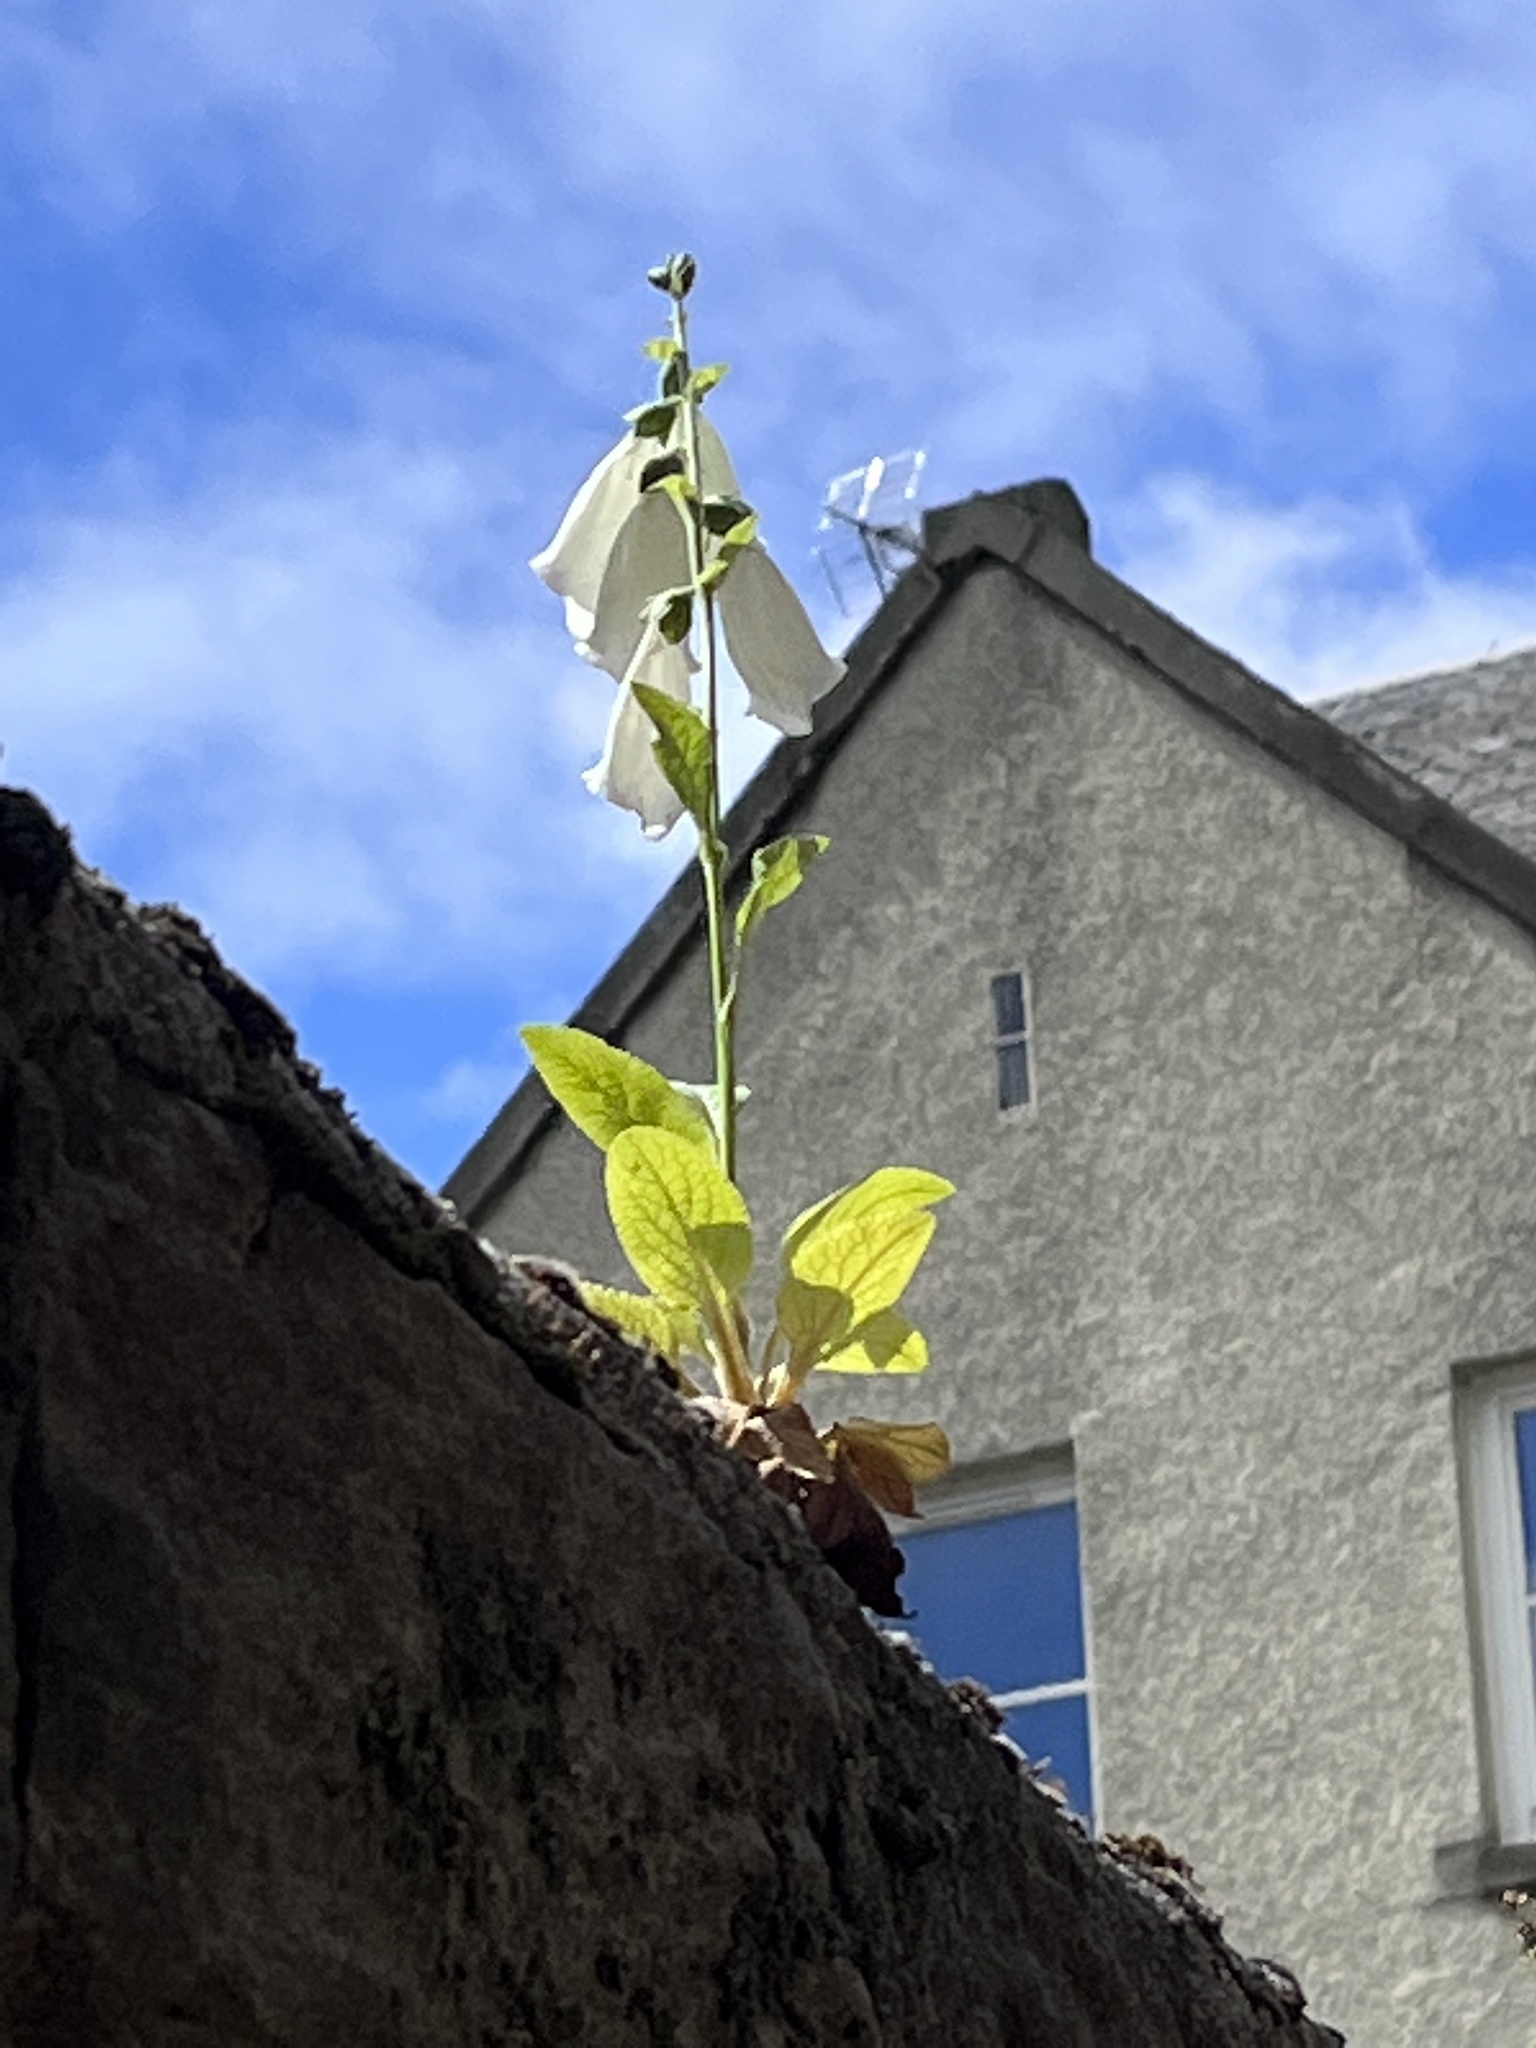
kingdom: Plantae
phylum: Tracheophyta
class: Magnoliopsida
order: Lamiales
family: Plantaginaceae
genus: Digitalis
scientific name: Digitalis purpurea
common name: Foxglove
